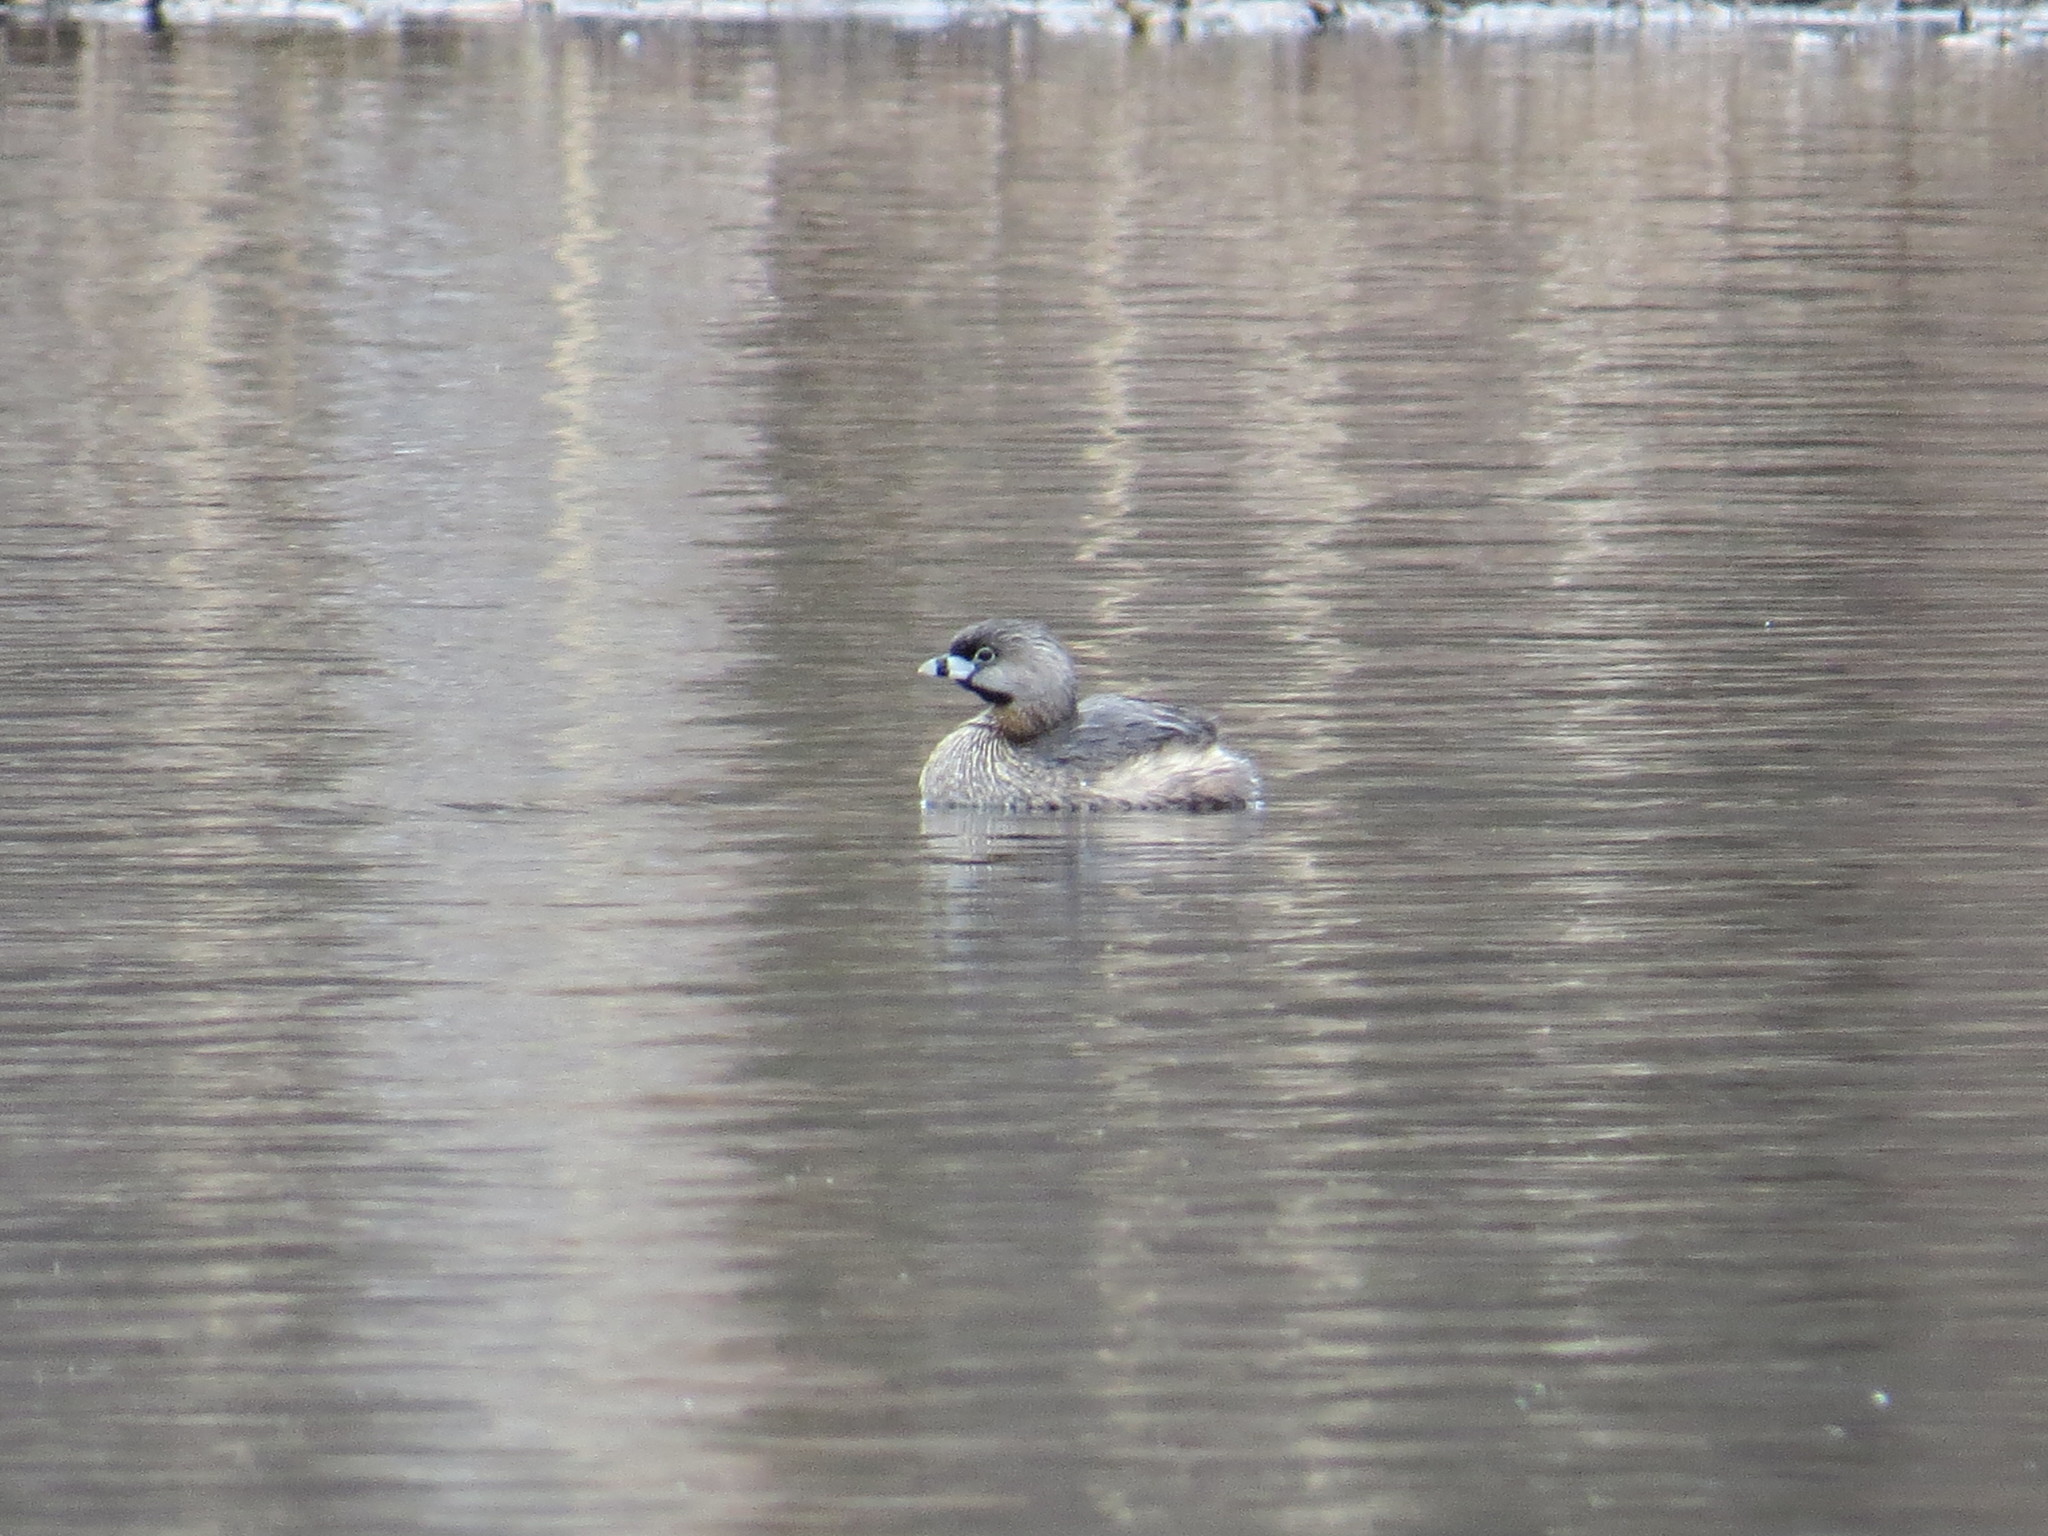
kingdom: Animalia
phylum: Chordata
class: Aves
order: Podicipediformes
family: Podicipedidae
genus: Podilymbus
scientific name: Podilymbus podiceps
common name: Pied-billed grebe
